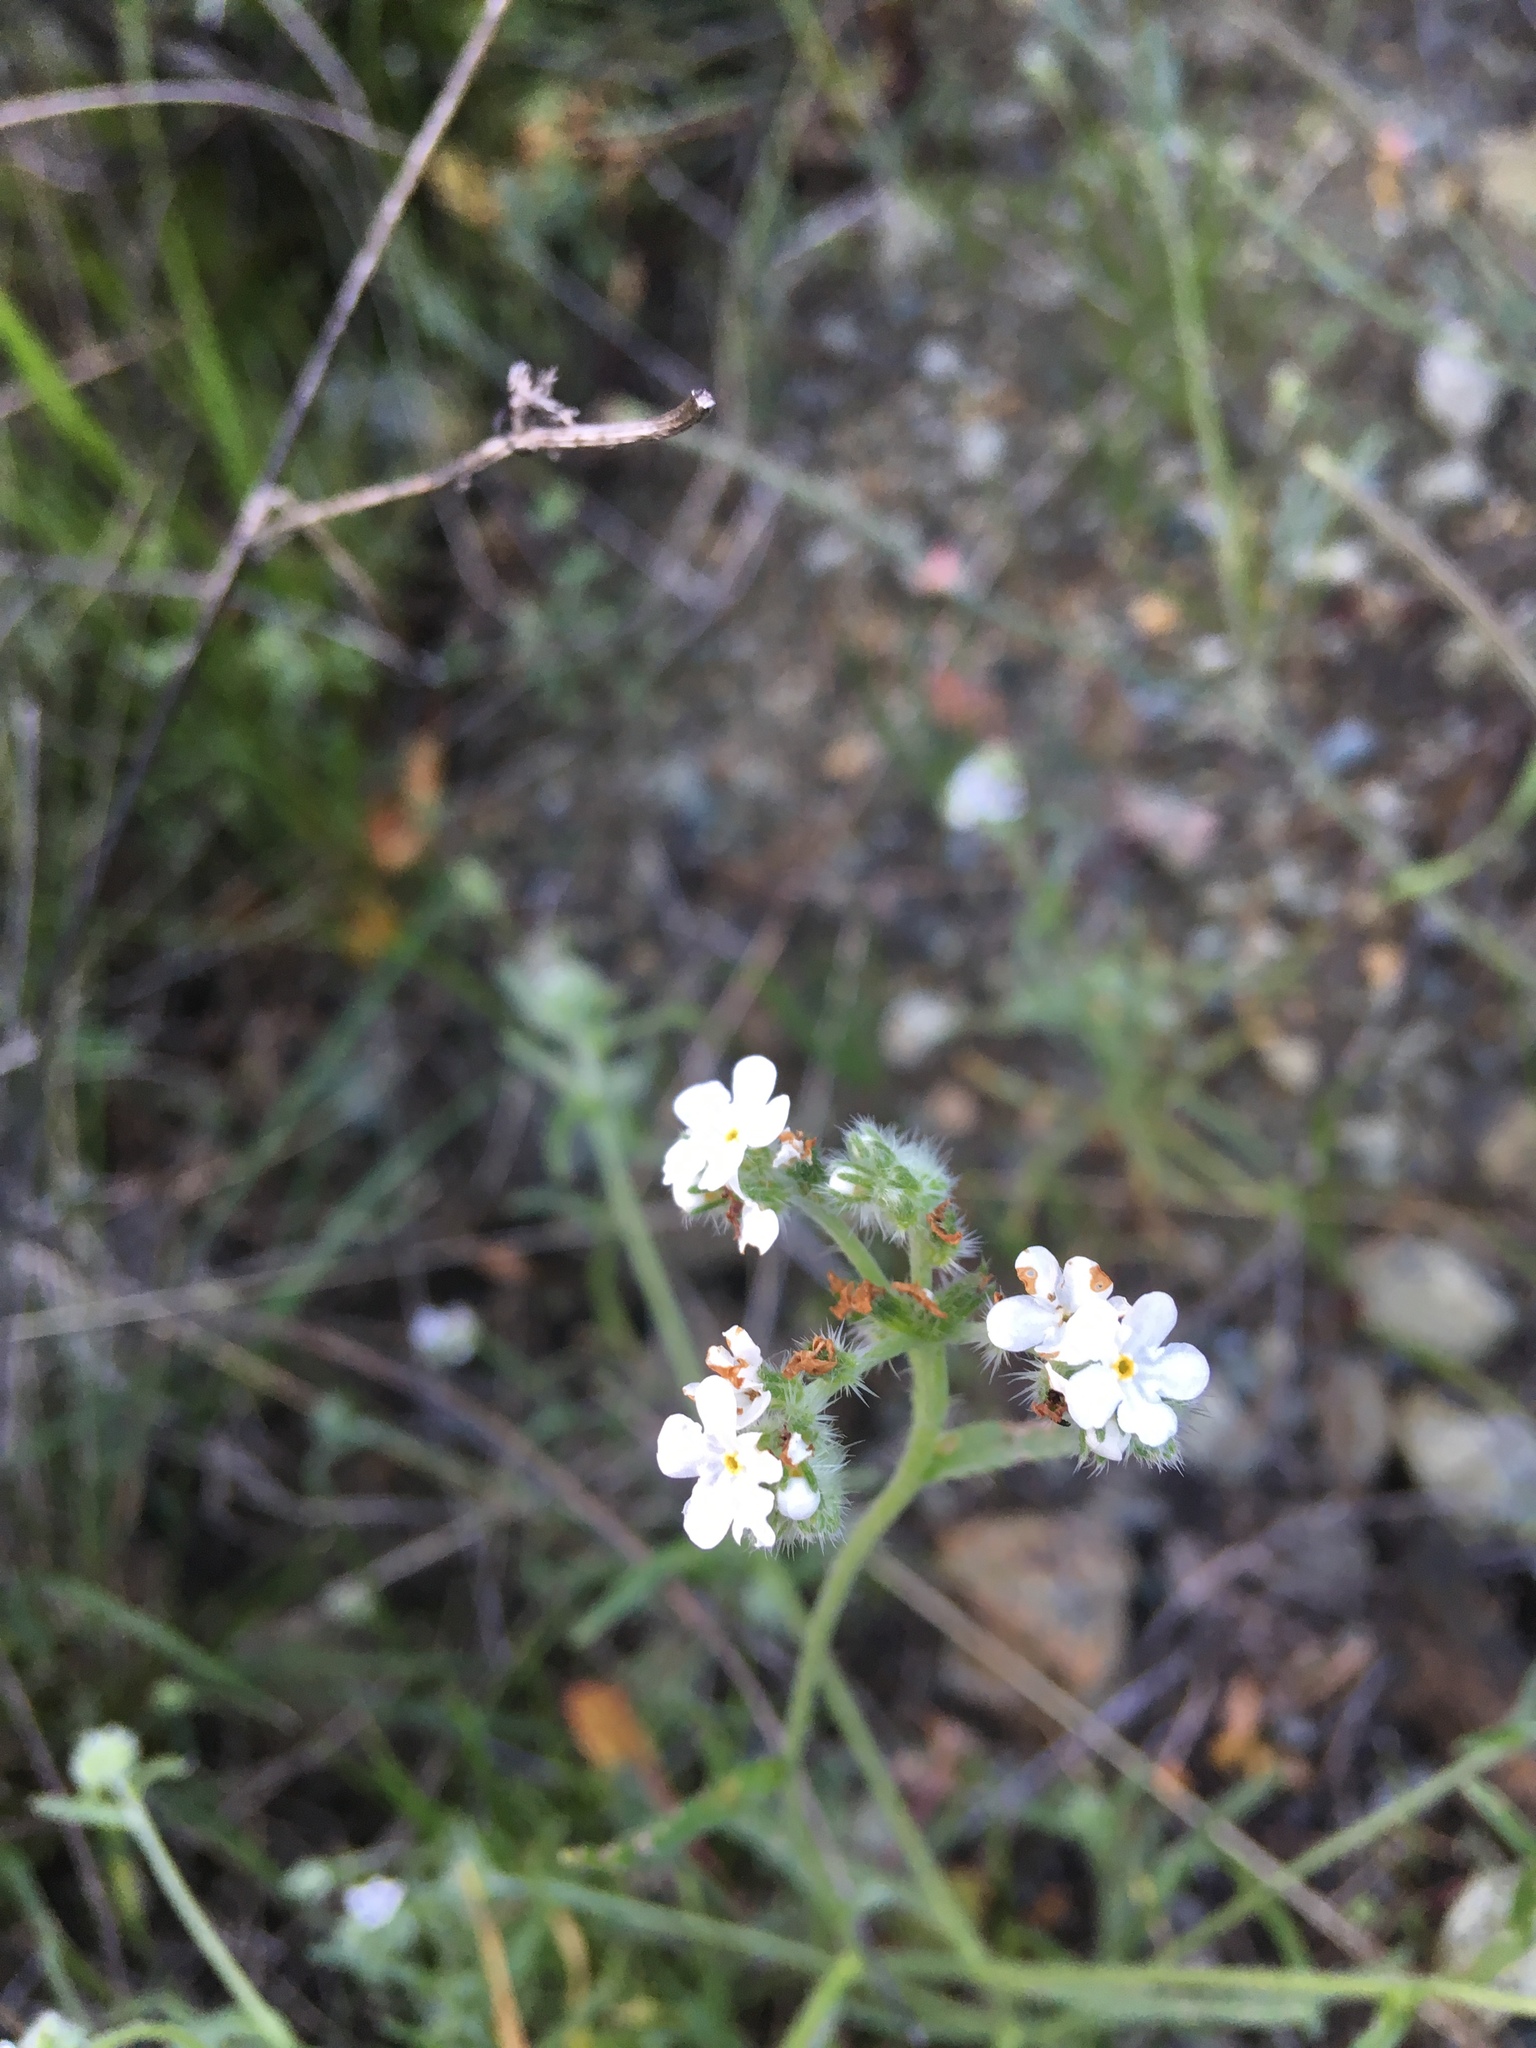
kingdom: Plantae
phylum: Tracheophyta
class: Magnoliopsida
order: Brassicales
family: Brassicaceae
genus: Lepidium
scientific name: Lepidium nitidum
